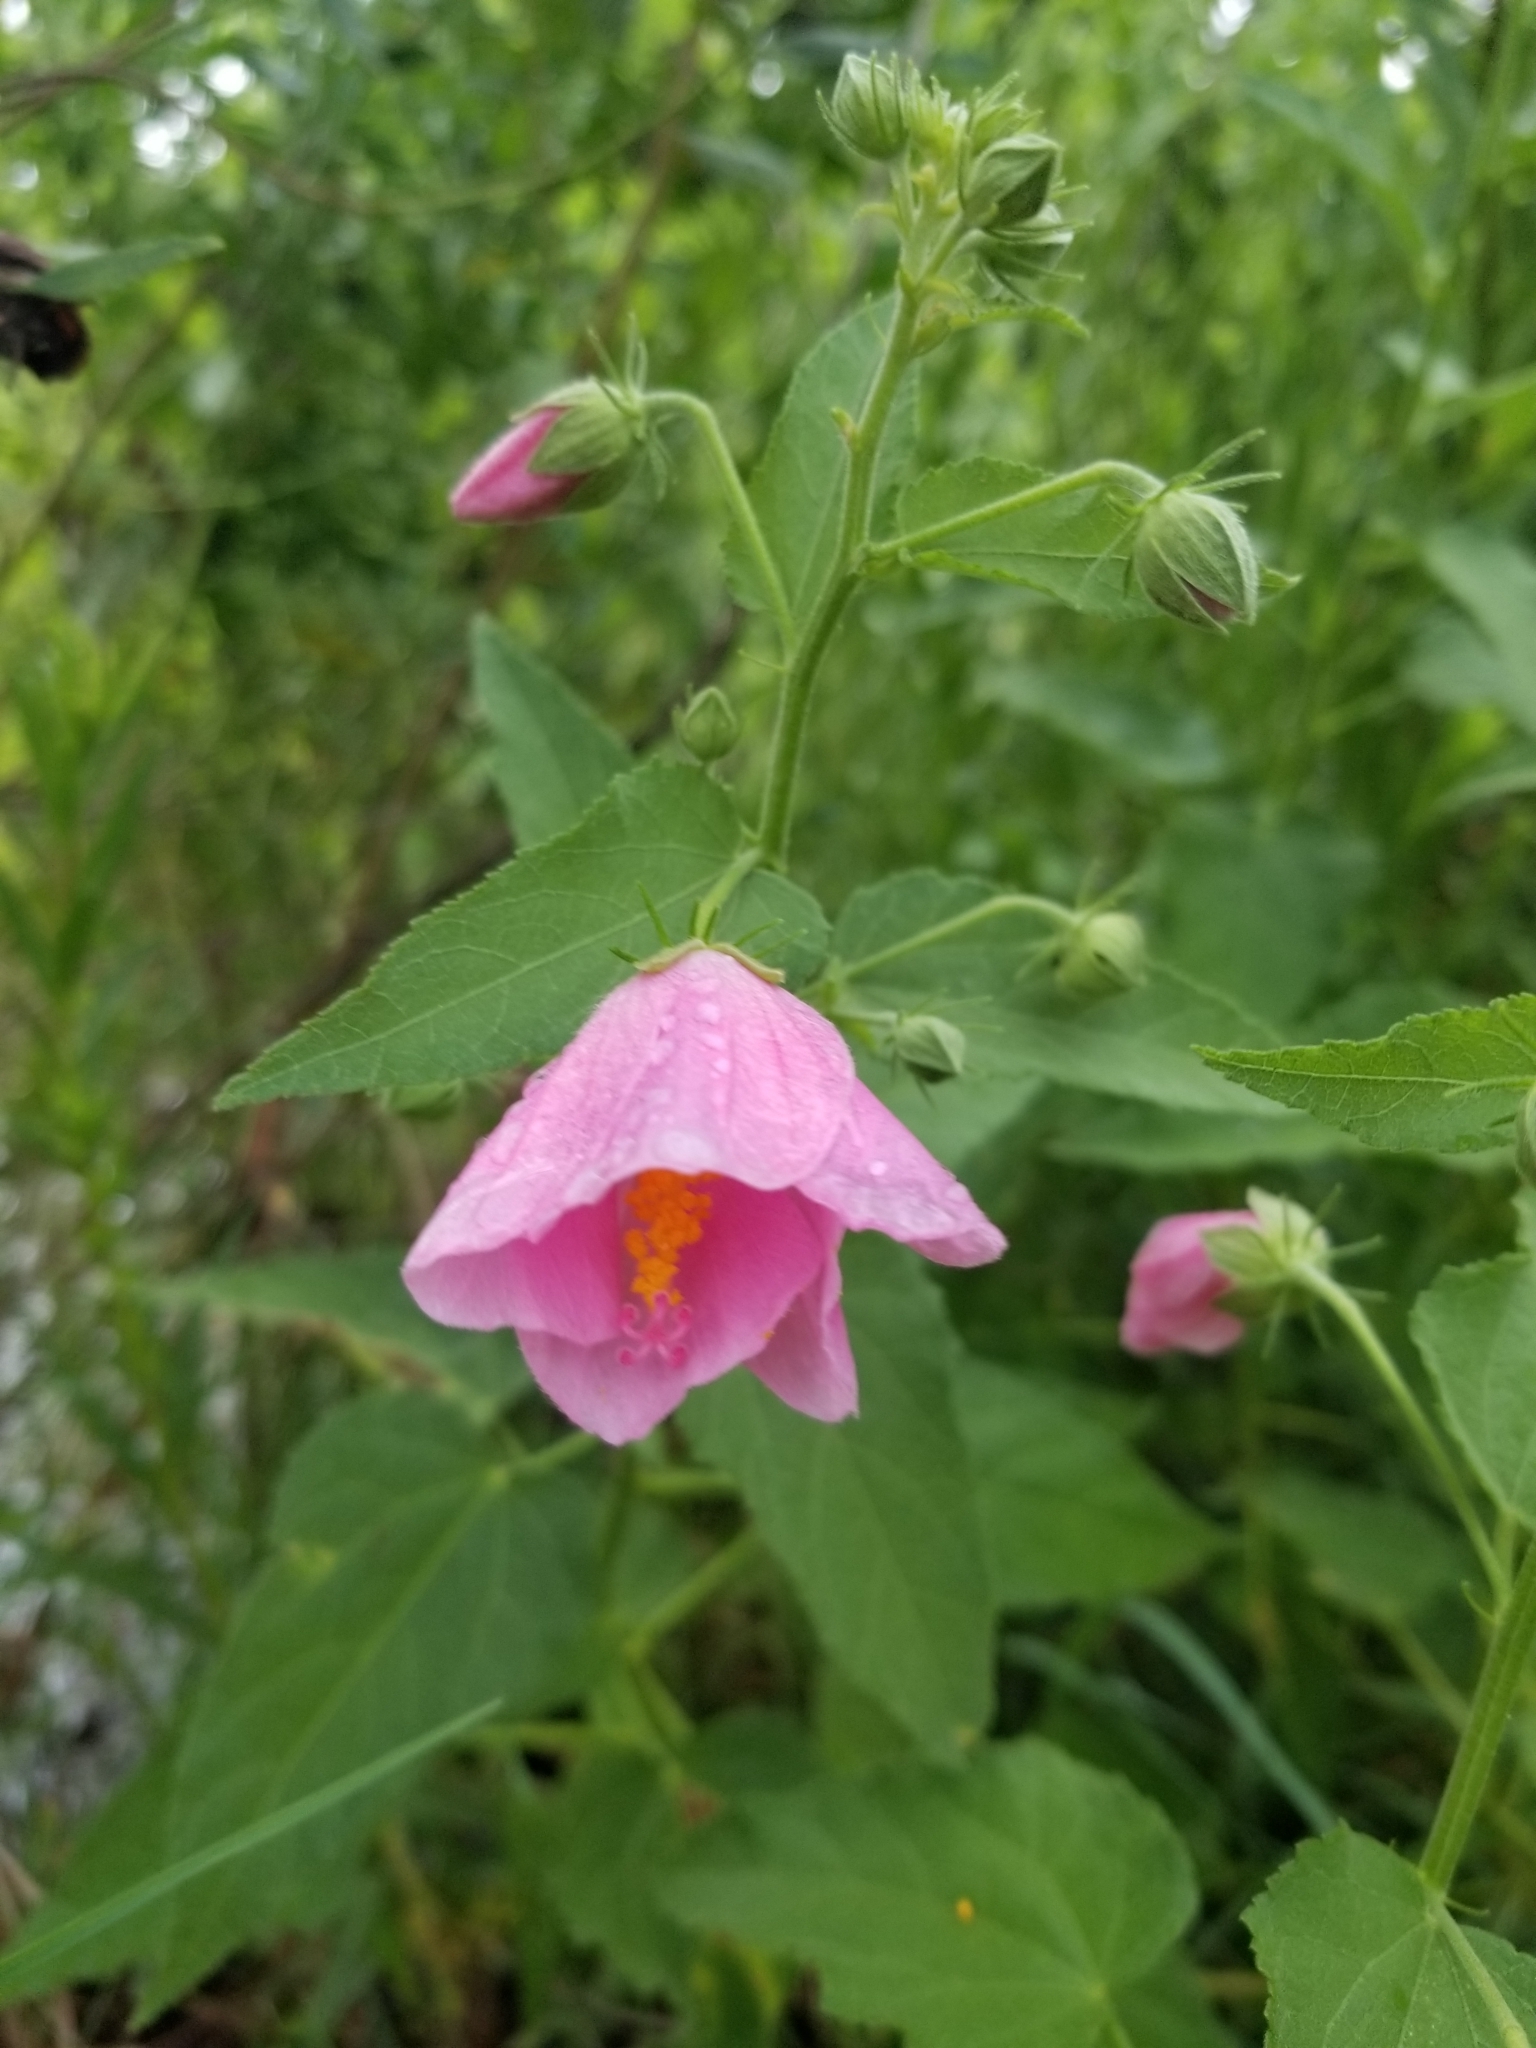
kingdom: Plantae
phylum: Tracheophyta
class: Magnoliopsida
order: Malvales
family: Malvaceae
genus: Kosteletzkya
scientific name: Kosteletzkya pentacarpos
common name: Virginia saltmarsh mallow
